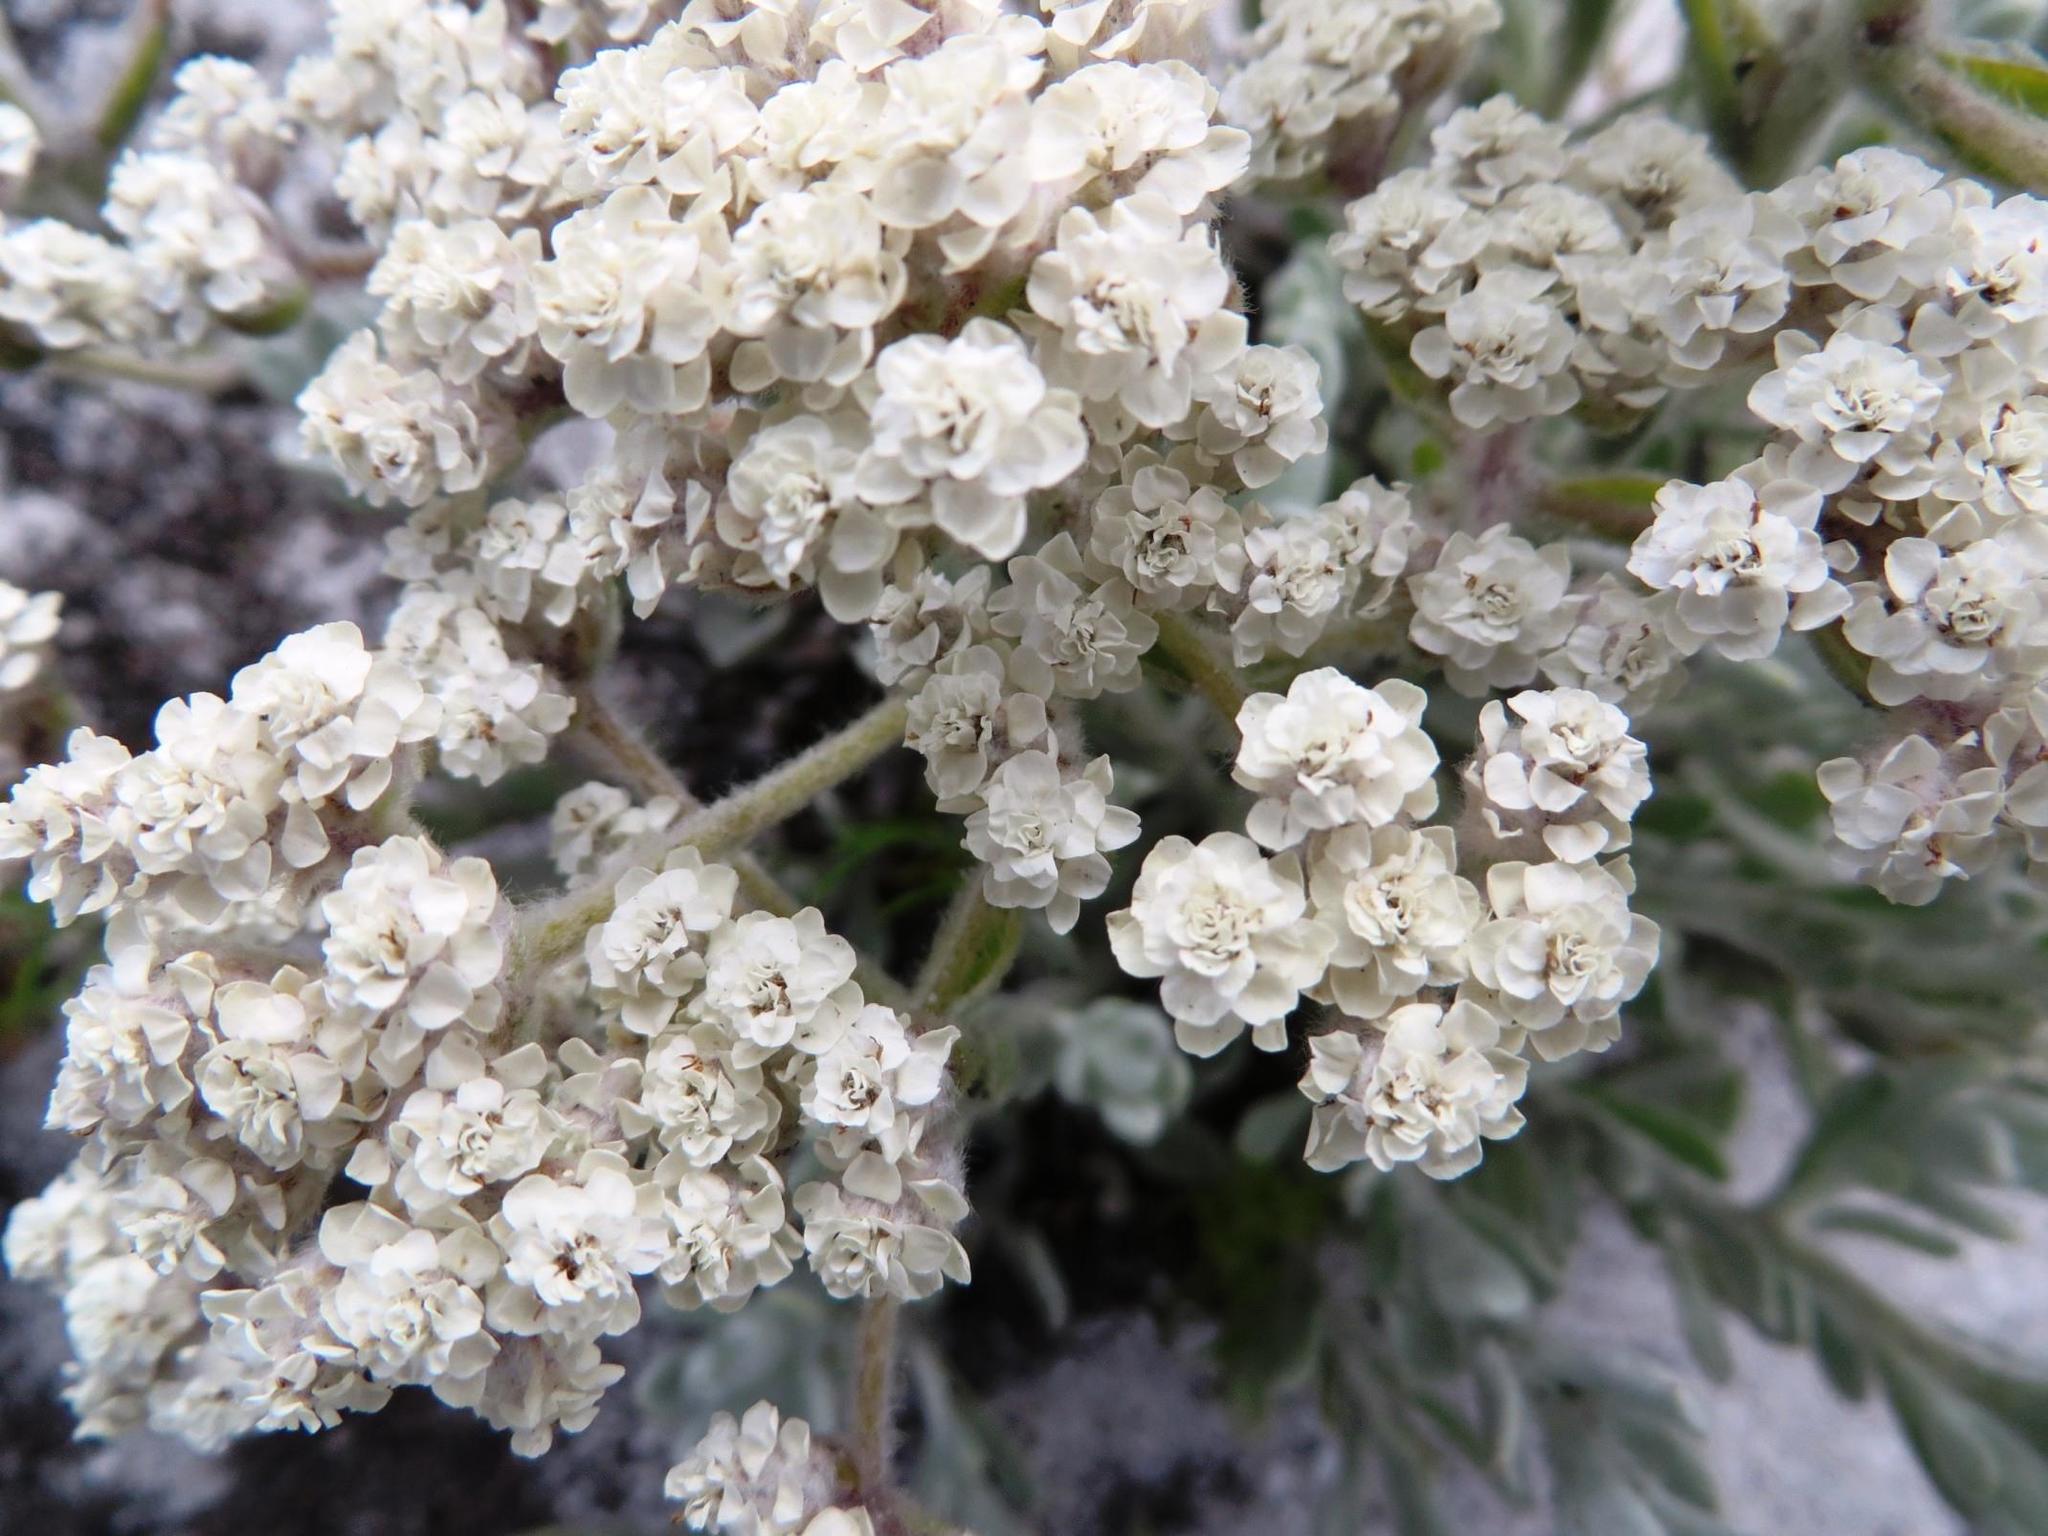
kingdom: Plantae
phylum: Tracheophyta
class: Magnoliopsida
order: Asterales
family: Asteraceae
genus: Petalacte
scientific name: Petalacte coronata
